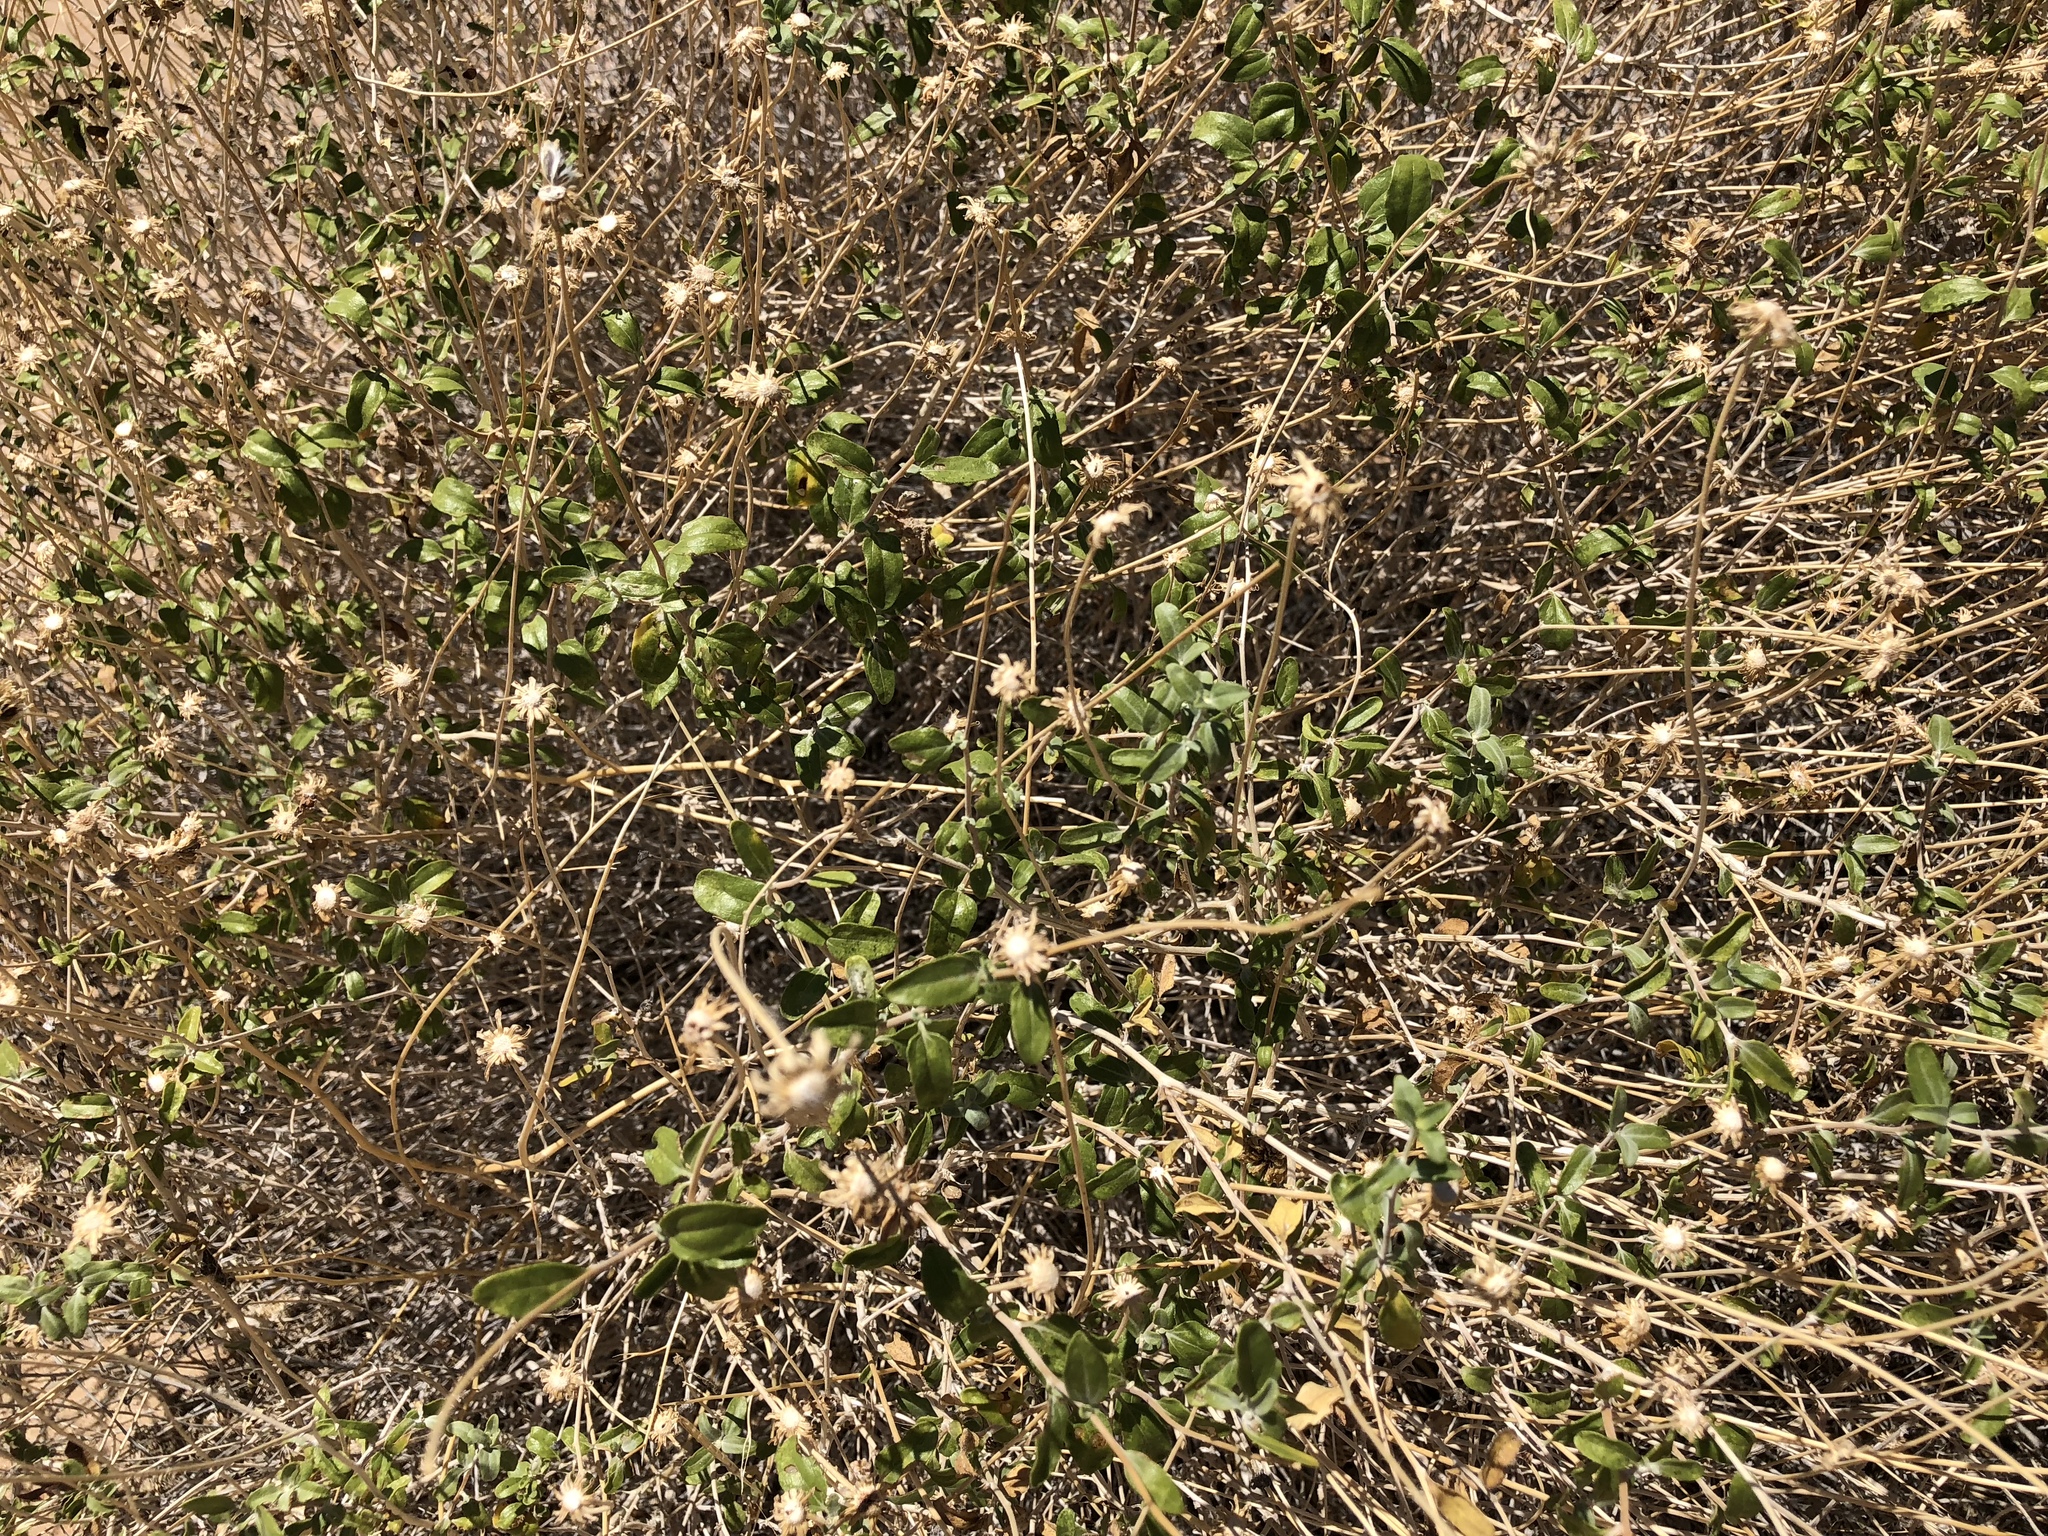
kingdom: Plantae
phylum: Tracheophyta
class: Magnoliopsida
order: Asterales
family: Asteraceae
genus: Bahiopsis
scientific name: Bahiopsis parishii
